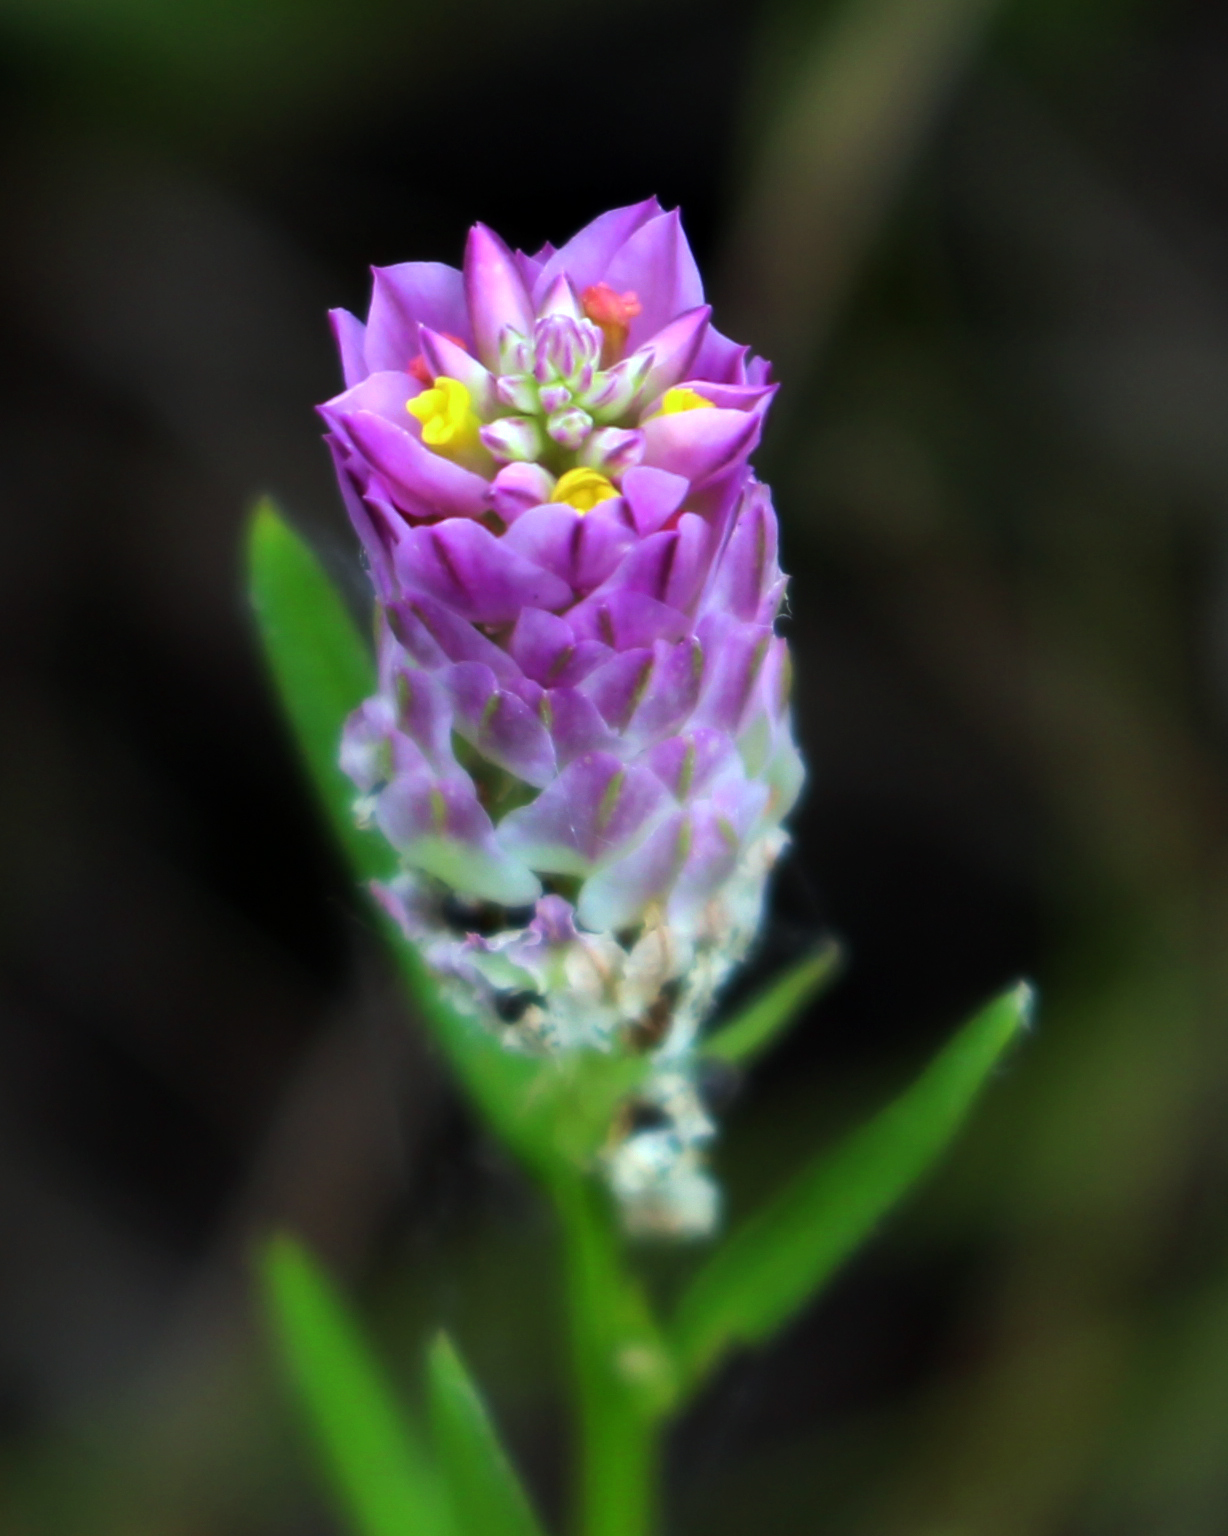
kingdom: Plantae
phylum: Tracheophyta
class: Magnoliopsida
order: Fabales
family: Polygalaceae
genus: Polygala
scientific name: Polygala sanguinea
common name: Blood milkwort
